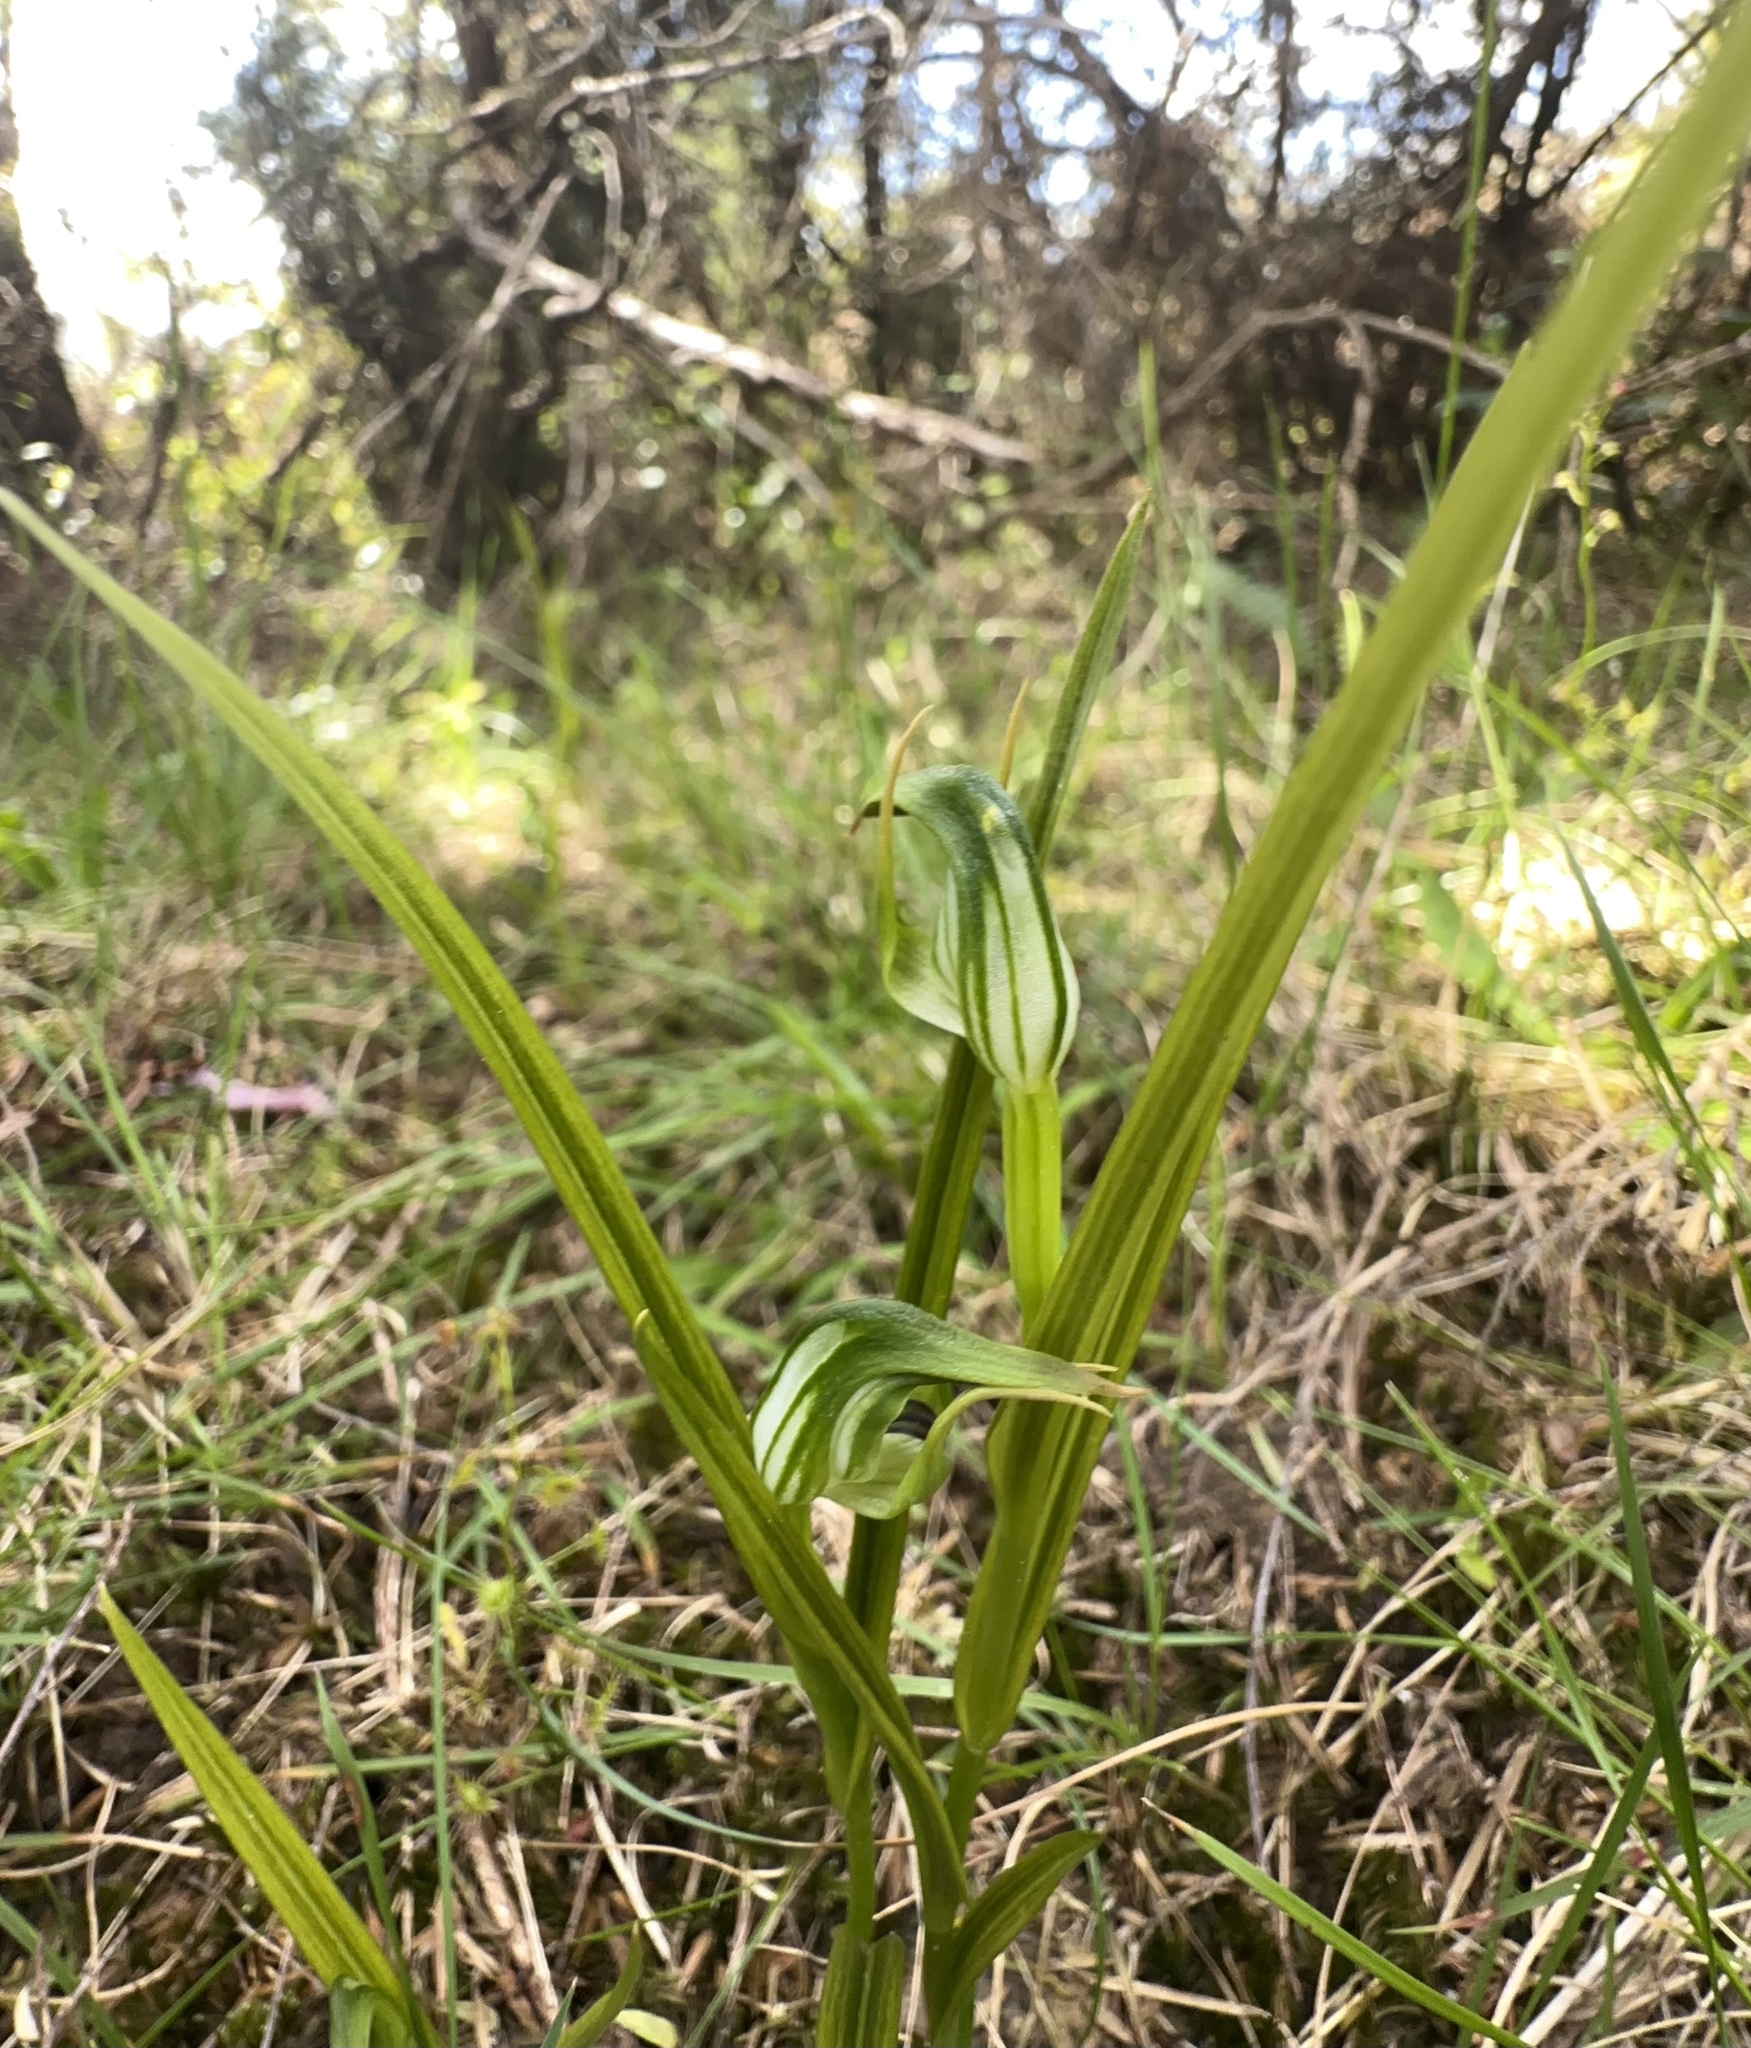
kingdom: Plantae
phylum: Tracheophyta
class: Liliopsida
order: Asparagales
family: Orchidaceae
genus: Pterostylis
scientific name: Pterostylis graminea
